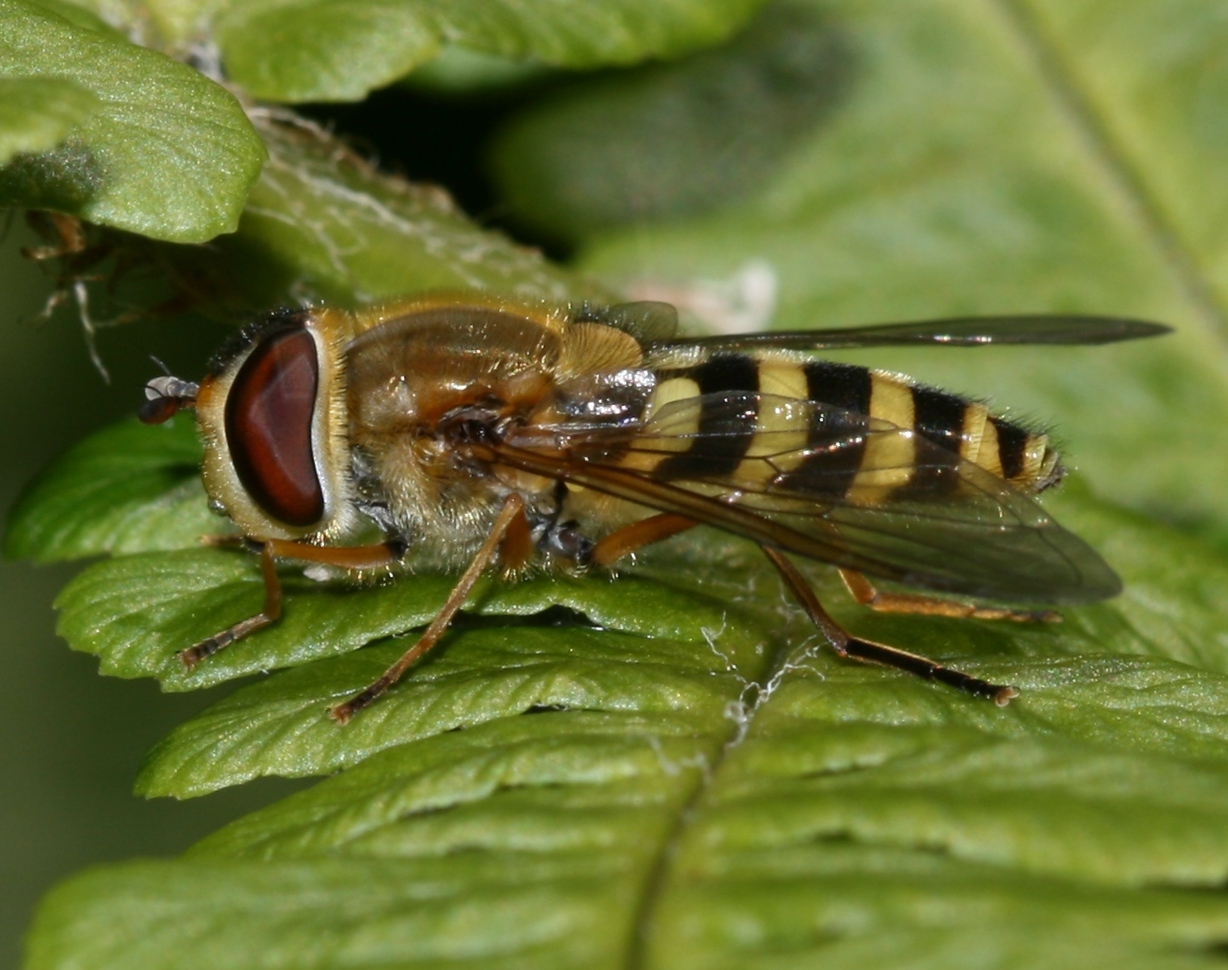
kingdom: Animalia
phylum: Arthropoda
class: Insecta
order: Diptera
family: Syrphidae
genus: Syrphus
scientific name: Syrphus ribesii
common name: Common flower fly
